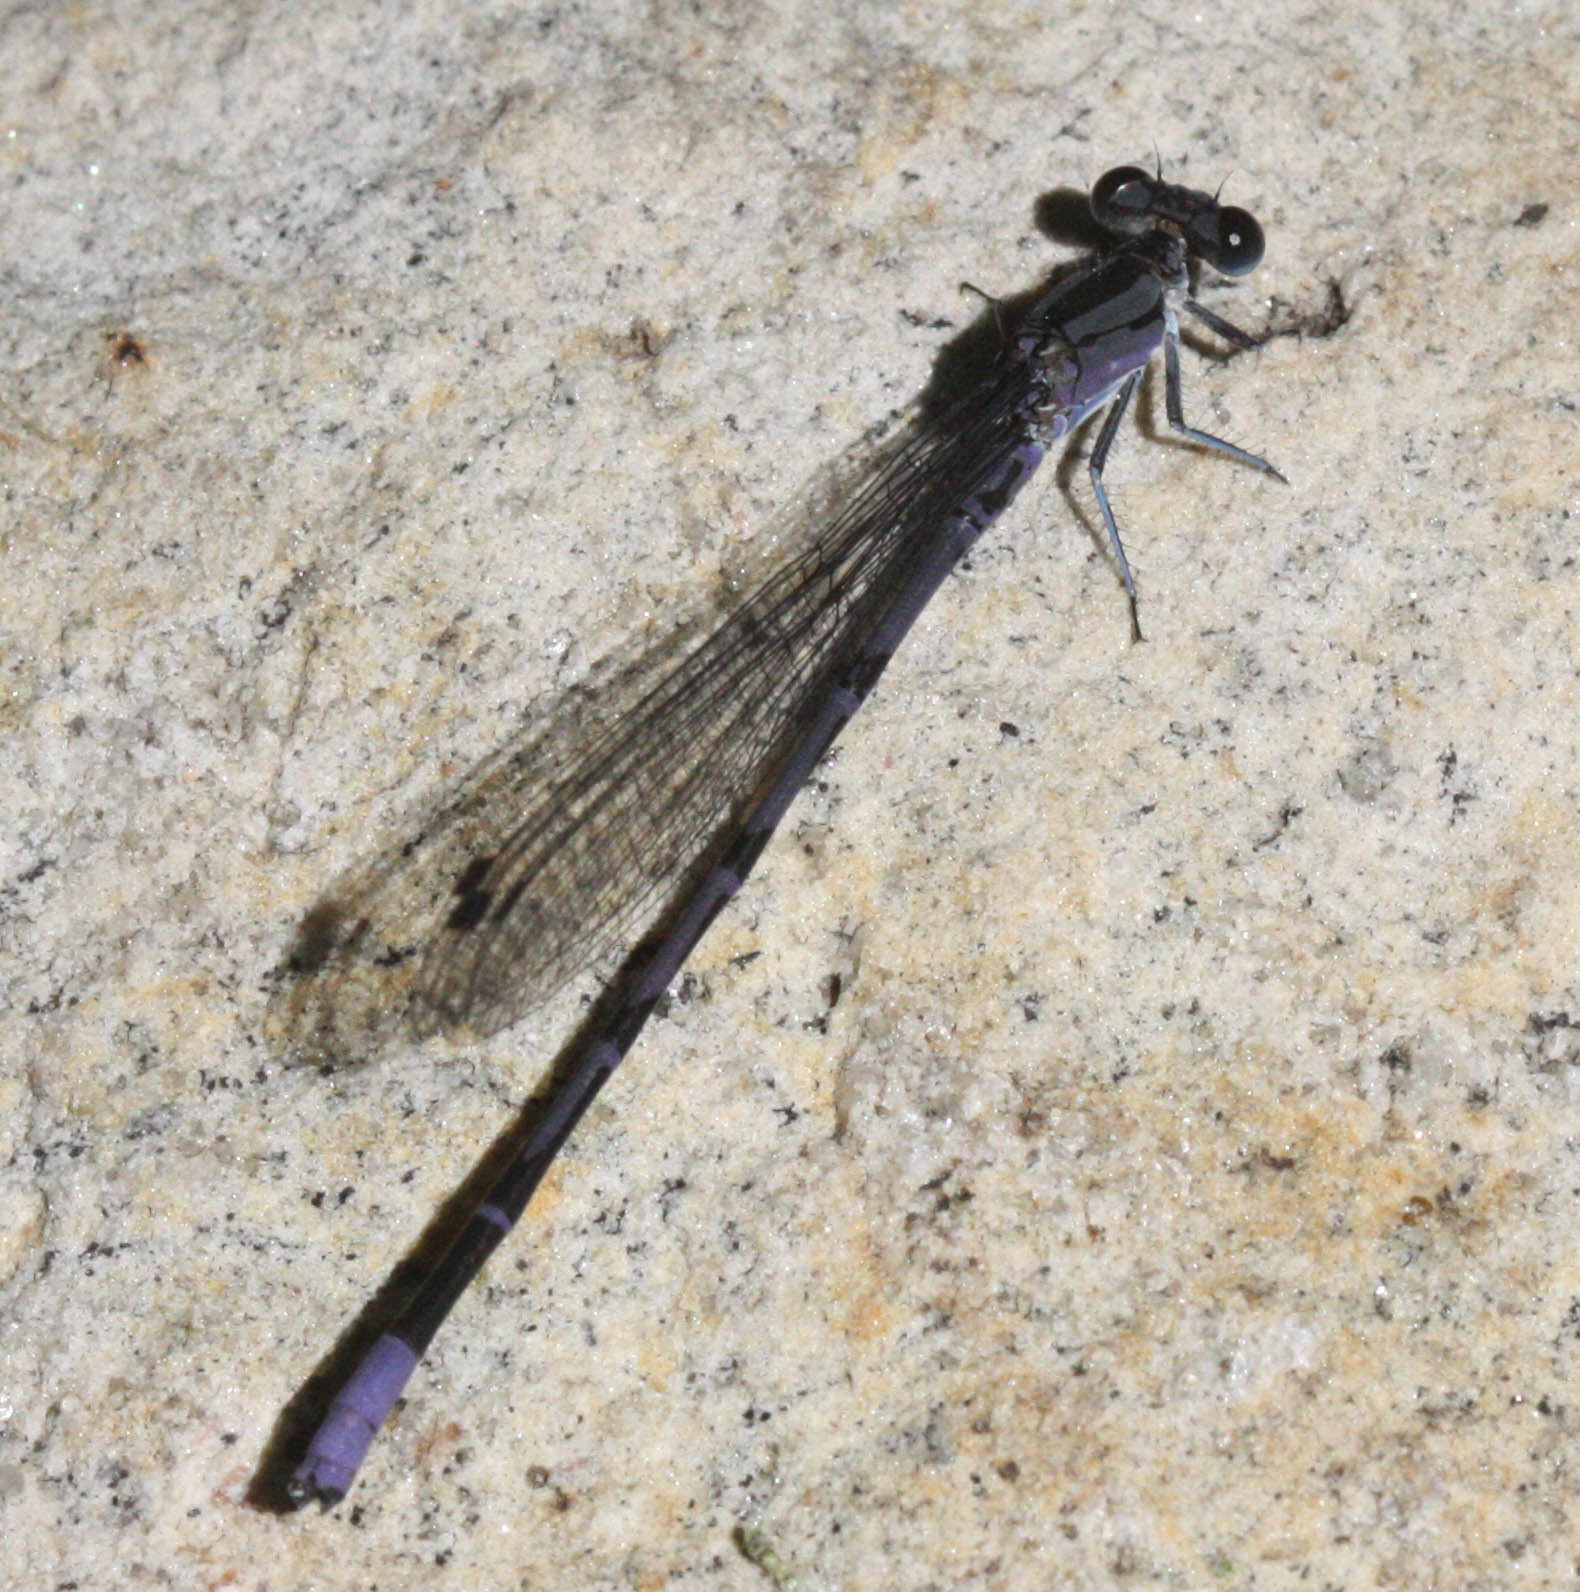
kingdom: Animalia
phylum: Arthropoda
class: Insecta
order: Odonata
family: Coenagrionidae
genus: Argia
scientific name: Argia funebris
